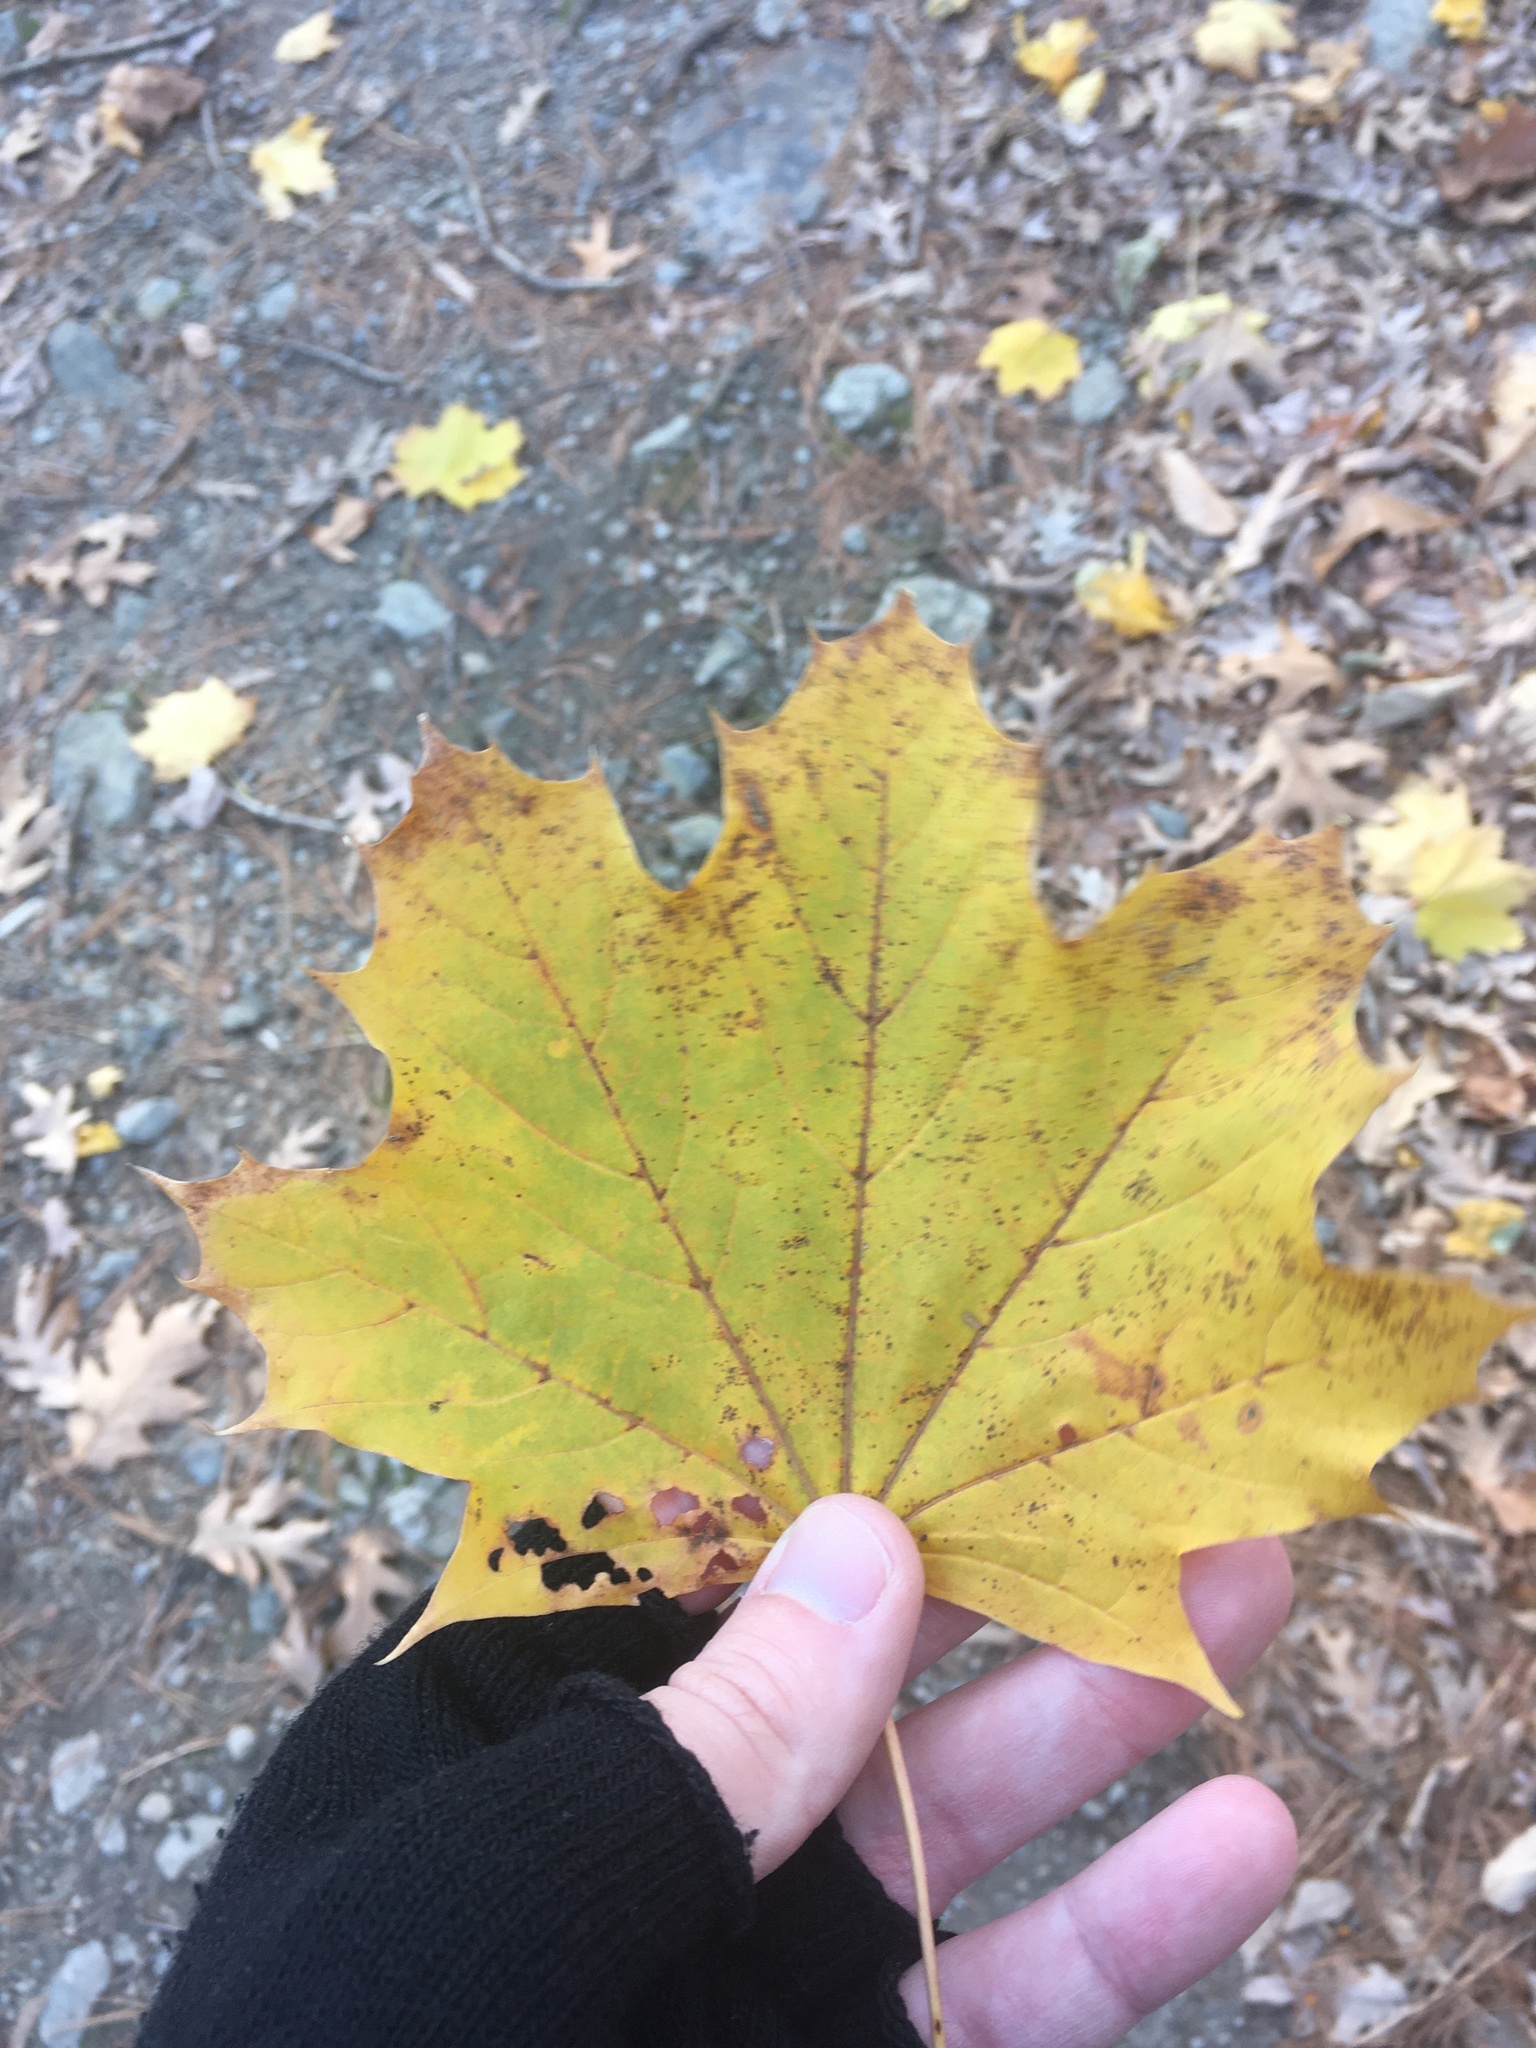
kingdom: Plantae
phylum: Tracheophyta
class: Magnoliopsida
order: Sapindales
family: Sapindaceae
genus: Acer
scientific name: Acer platanoides
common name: Norway maple
